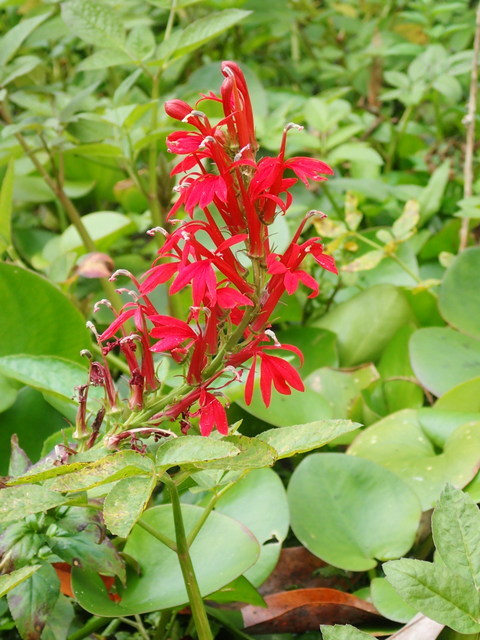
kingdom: Plantae
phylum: Tracheophyta
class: Magnoliopsida
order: Asterales
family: Campanulaceae
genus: Lobelia
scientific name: Lobelia cardinalis
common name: Cardinal flower
